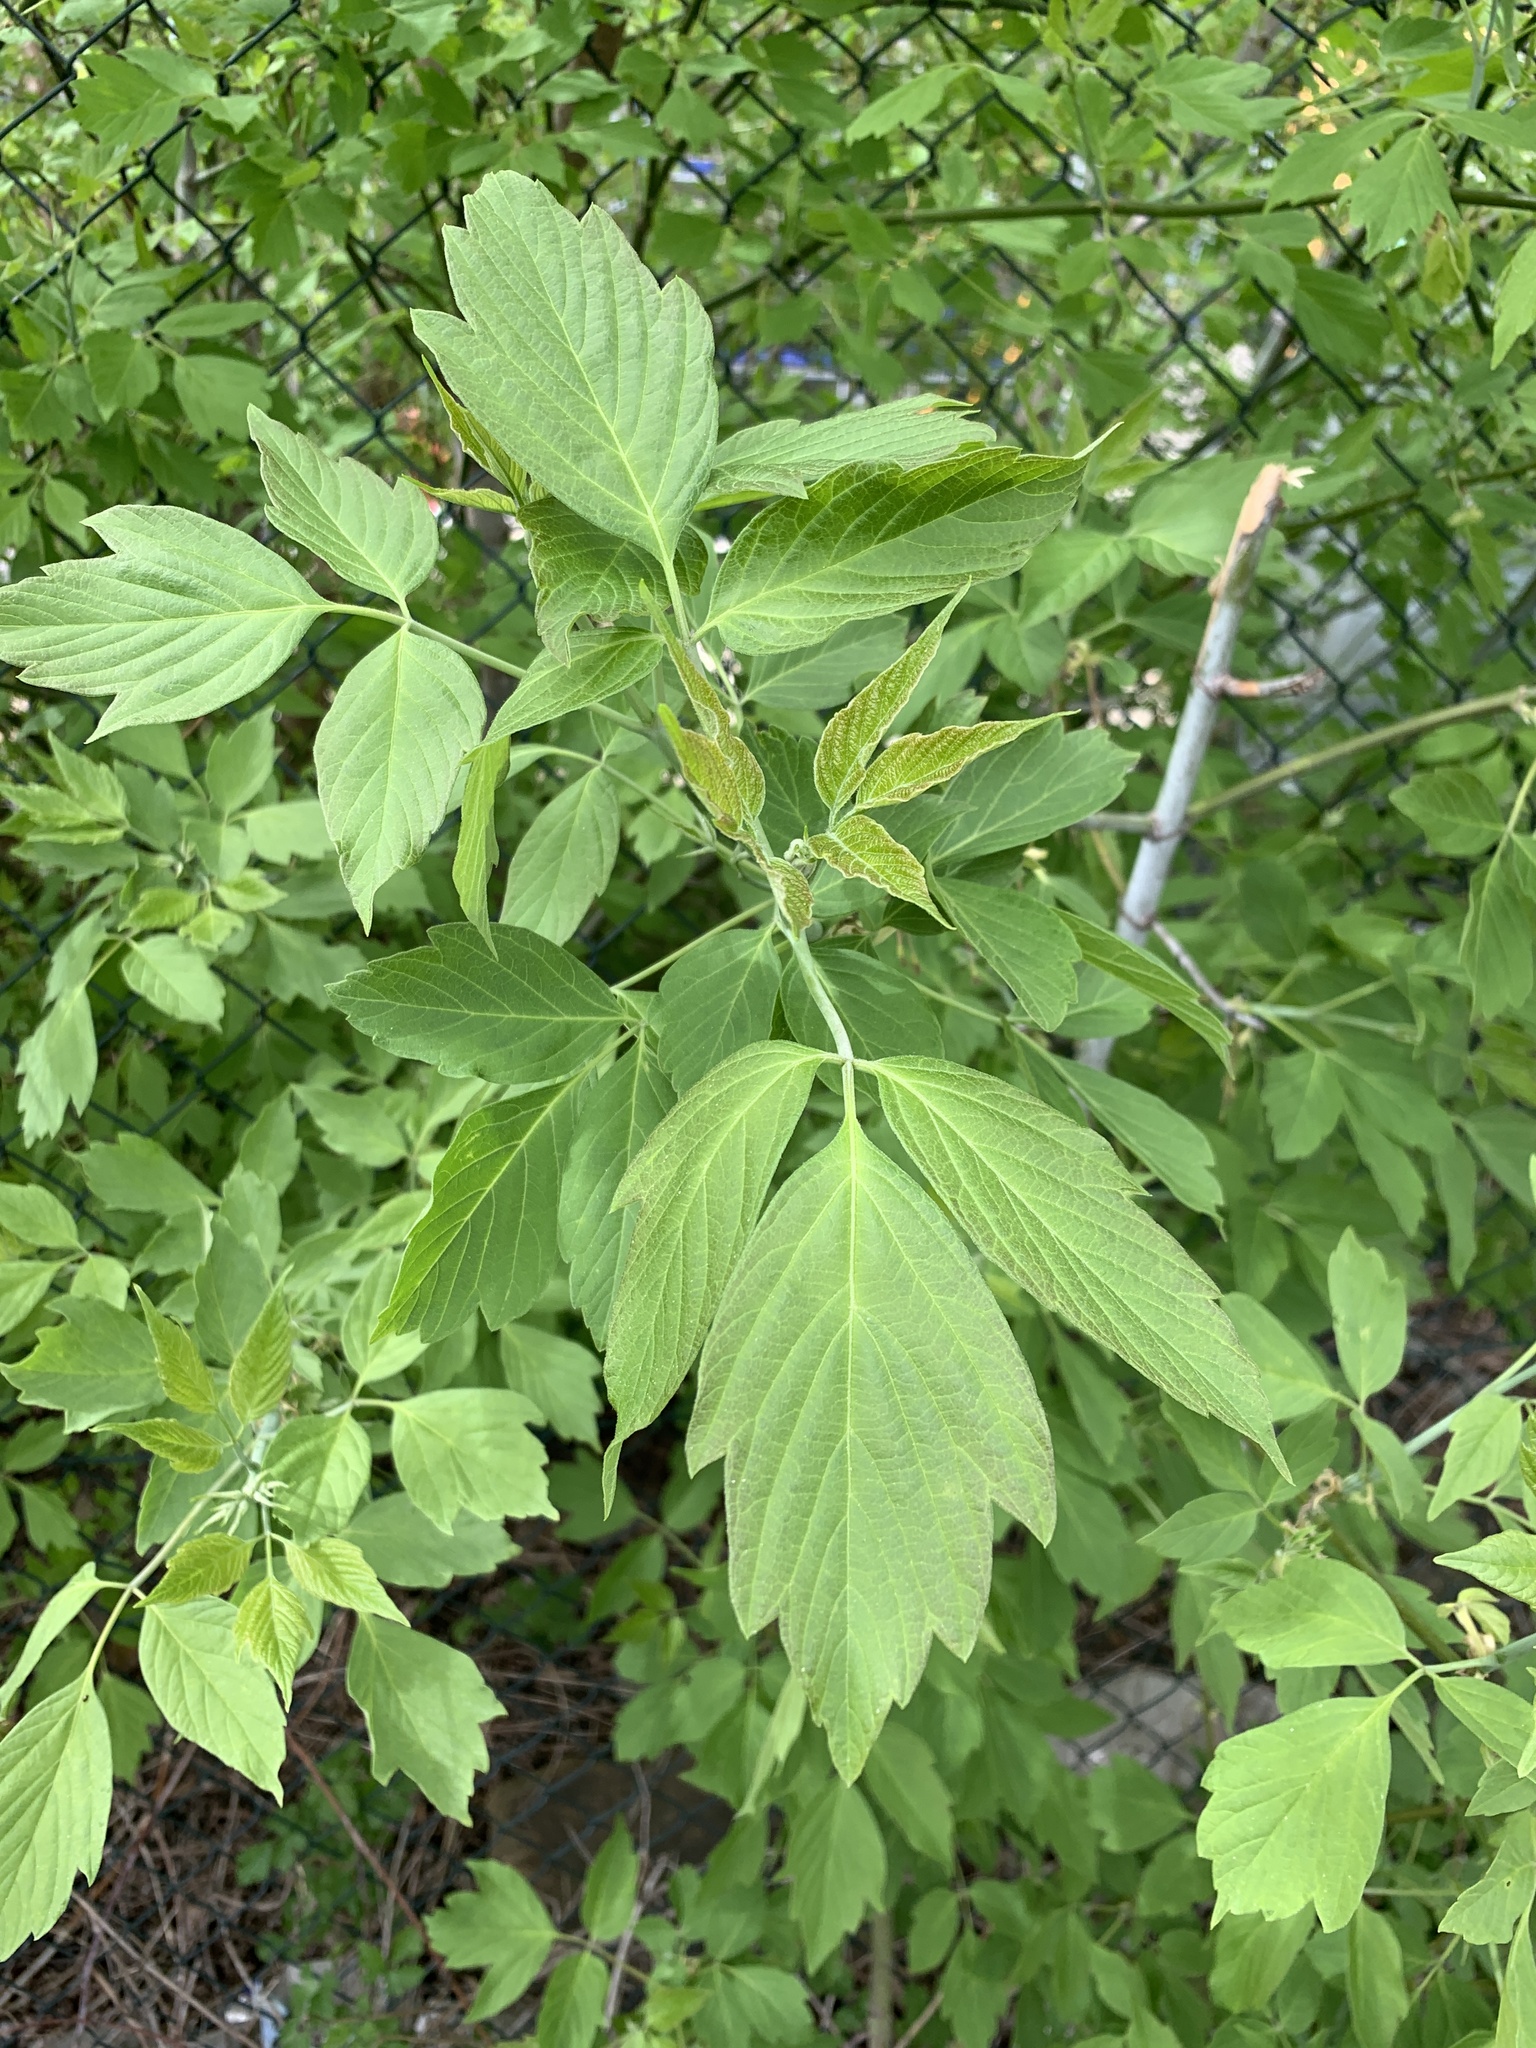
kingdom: Plantae
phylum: Tracheophyta
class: Magnoliopsida
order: Sapindales
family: Sapindaceae
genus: Acer
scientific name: Acer negundo
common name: Ashleaf maple
